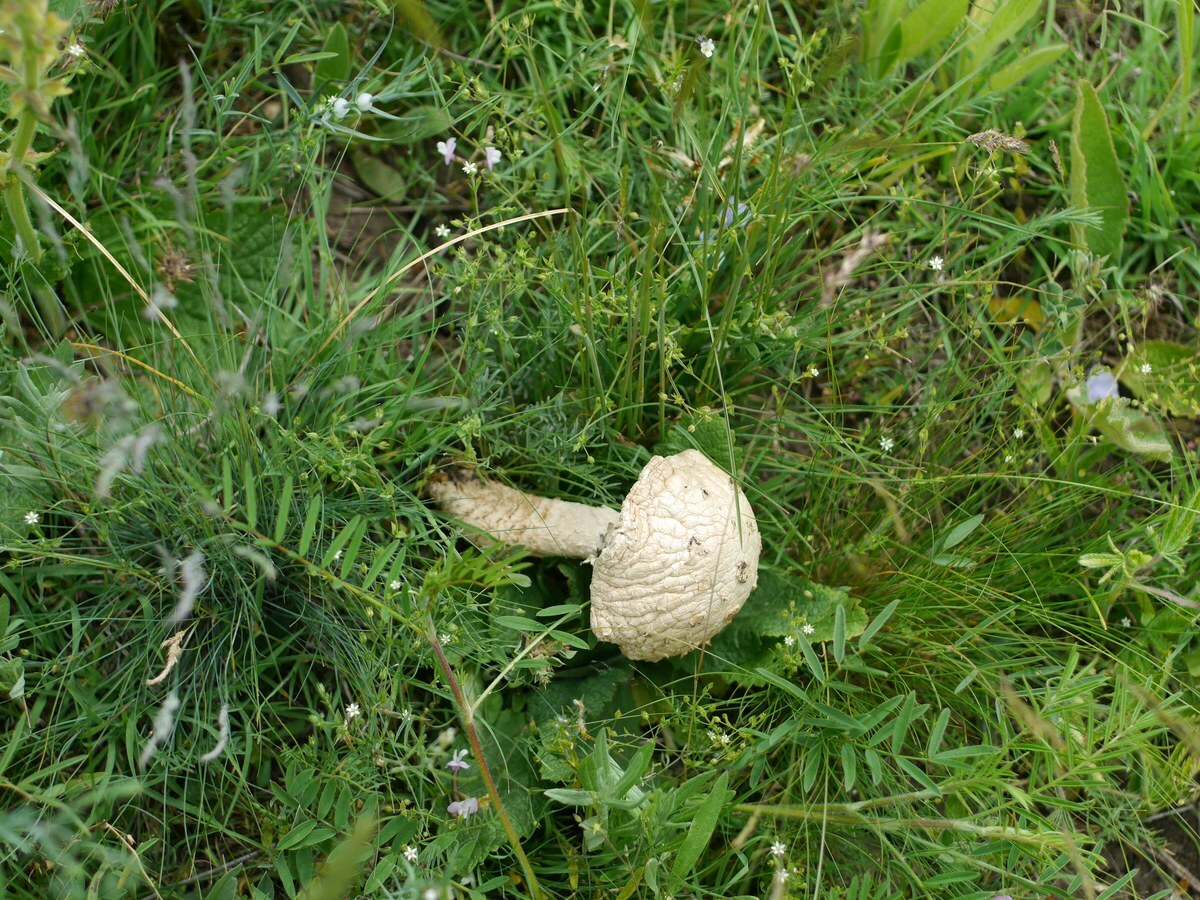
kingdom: Fungi
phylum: Basidiomycota
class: Agaricomycetes
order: Agaricales
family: Amanitaceae
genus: Amanita
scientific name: Amanita vittadinii
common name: Barefoot amanita
